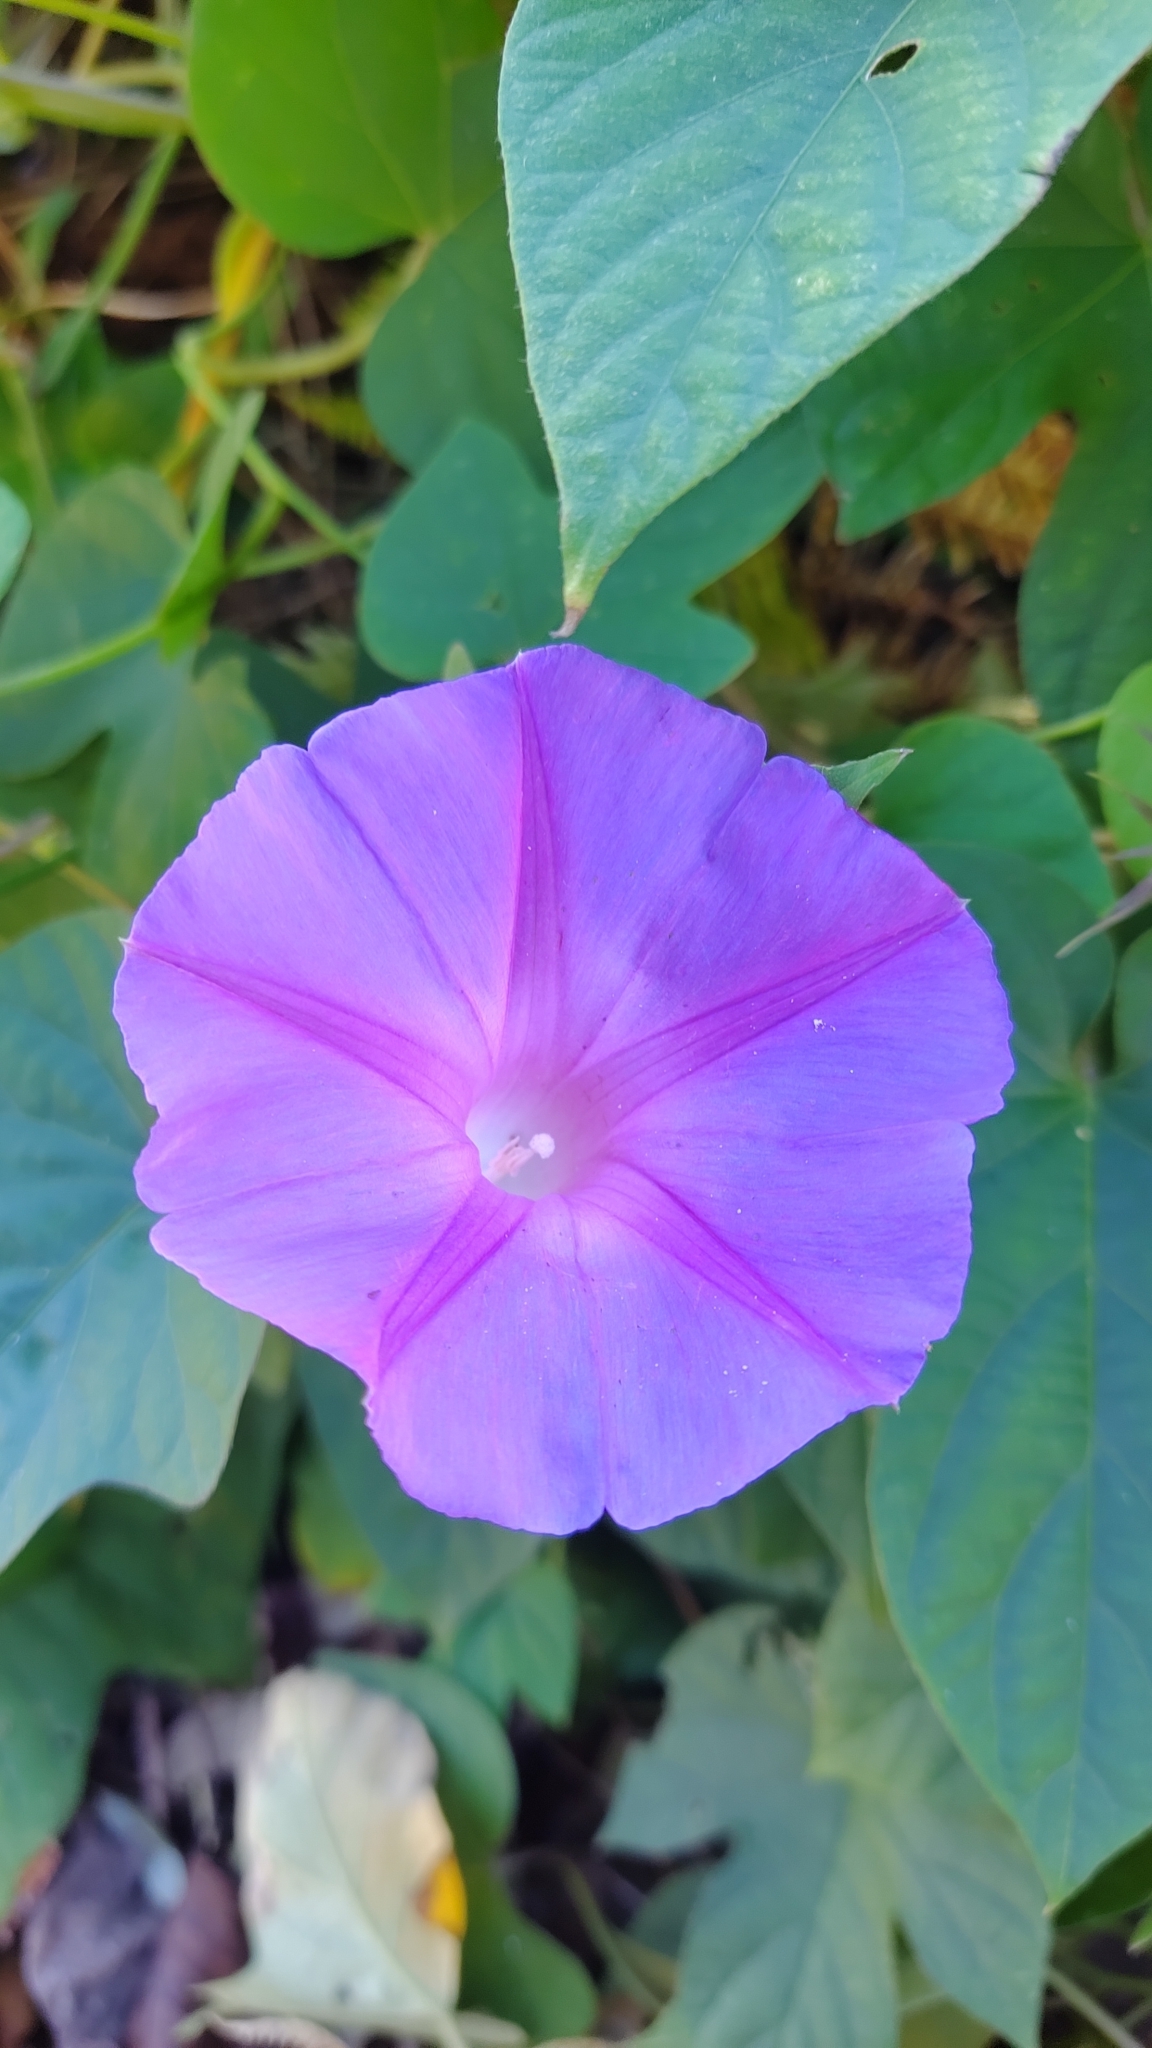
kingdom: Plantae
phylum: Tracheophyta
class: Magnoliopsida
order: Solanales
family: Convolvulaceae
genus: Ipomoea
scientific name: Ipomoea indica
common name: Blue dawnflower
